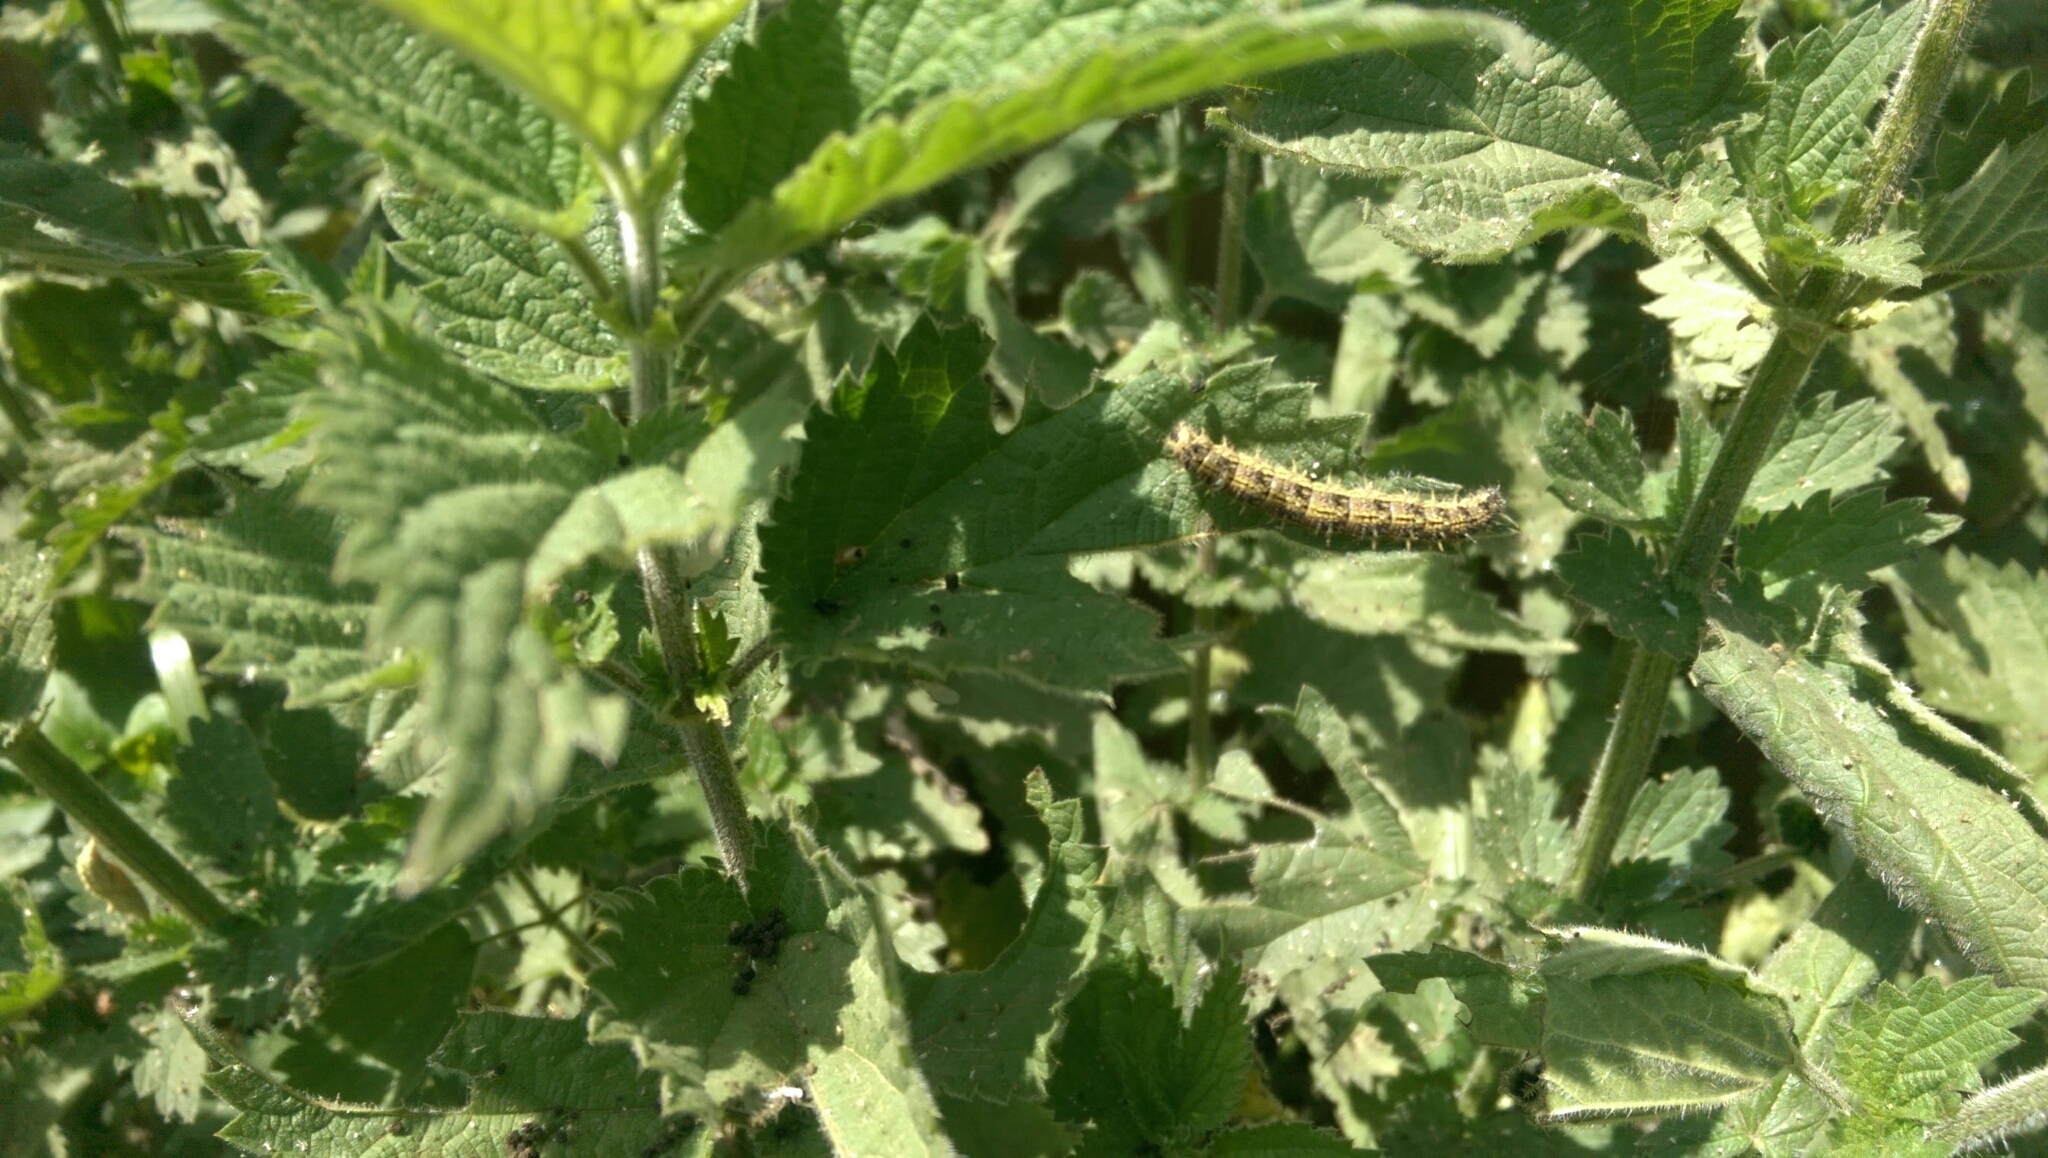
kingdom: Animalia
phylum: Arthropoda
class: Insecta
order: Lepidoptera
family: Nymphalidae
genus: Aglais
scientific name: Aglais urticae
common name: Small tortoiseshell
